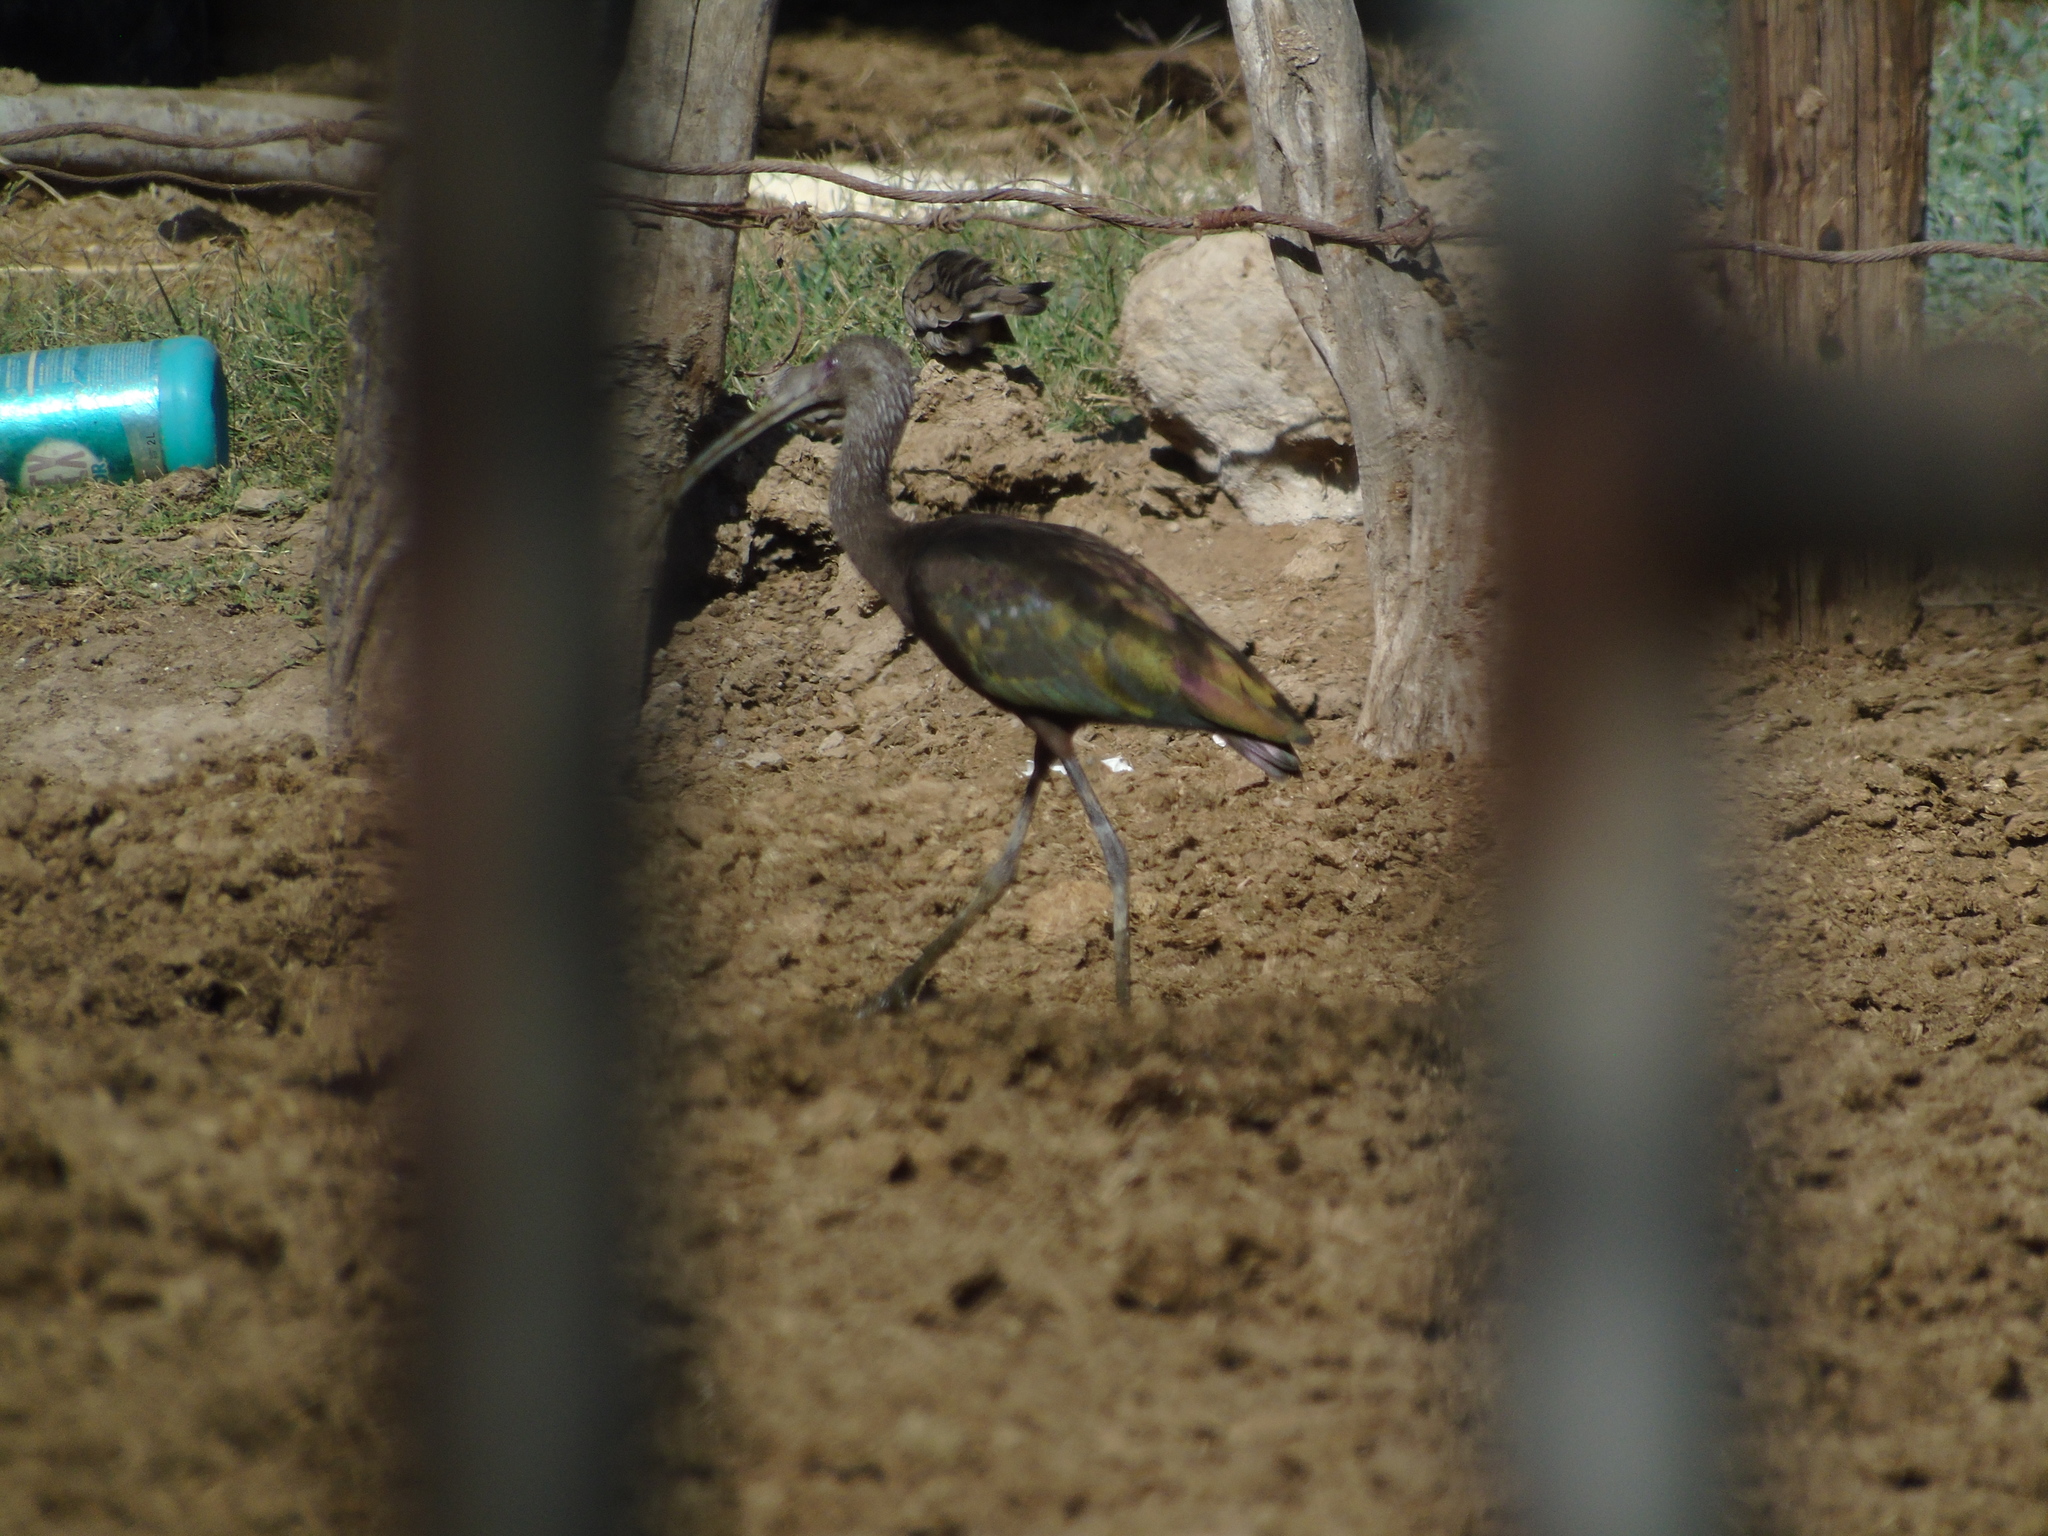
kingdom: Animalia
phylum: Chordata
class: Aves
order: Pelecaniformes
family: Threskiornithidae
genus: Plegadis
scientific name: Plegadis chihi
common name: White-faced ibis
